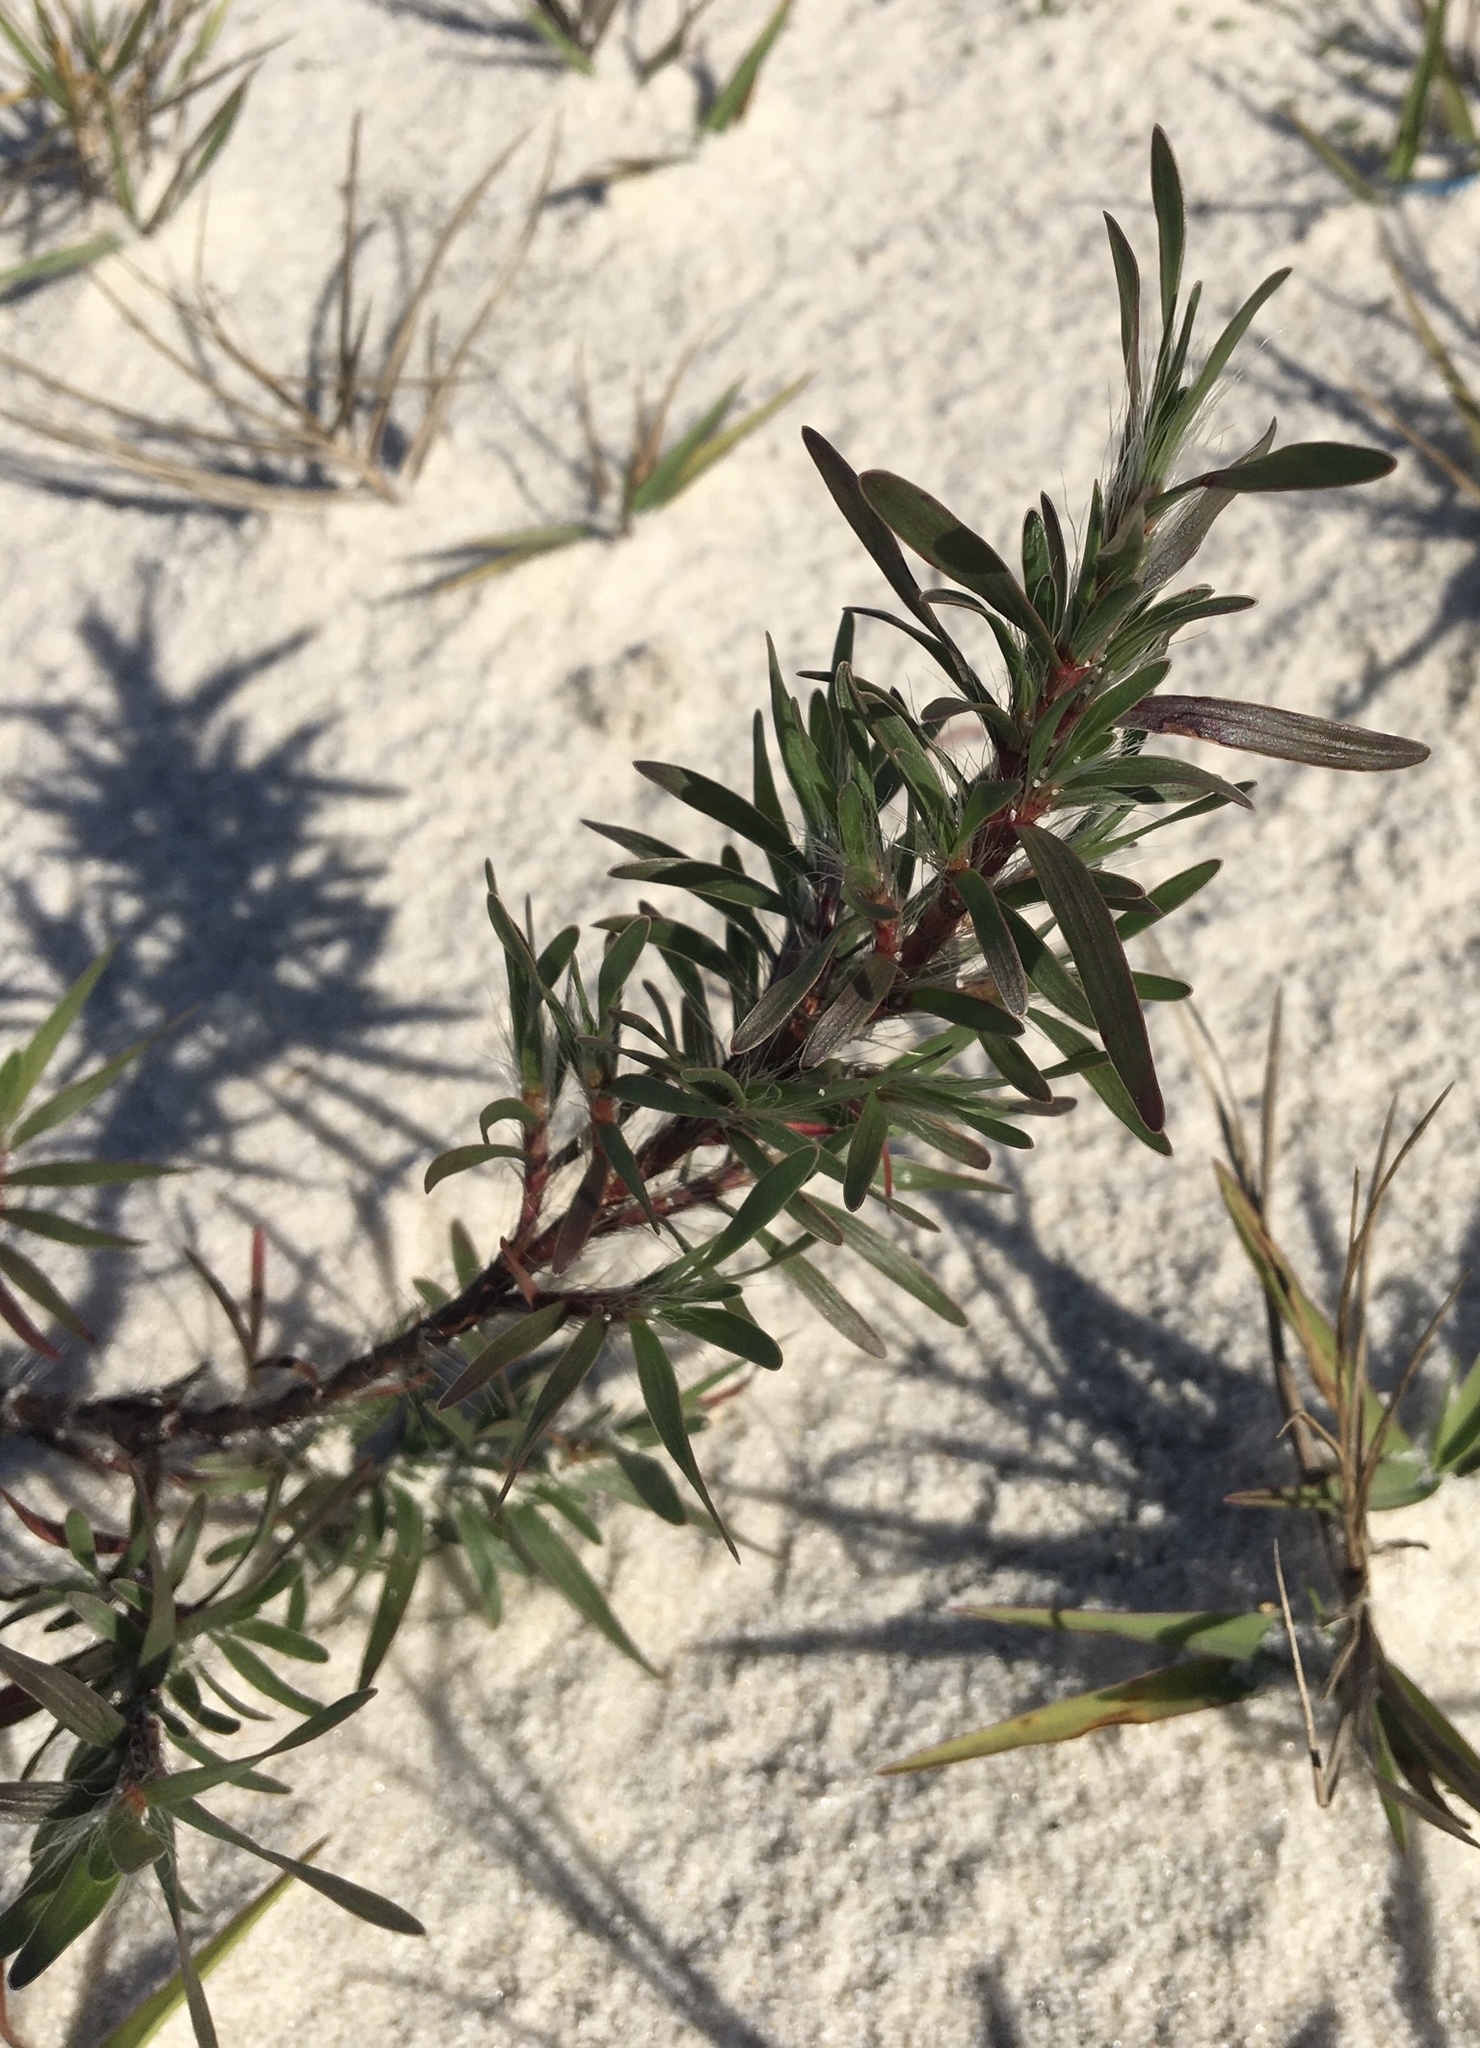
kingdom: Plantae
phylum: Tracheophyta
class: Magnoliopsida
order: Caryophyllales
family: Polygonaceae
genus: Polygonella
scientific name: Polygonella robusta
